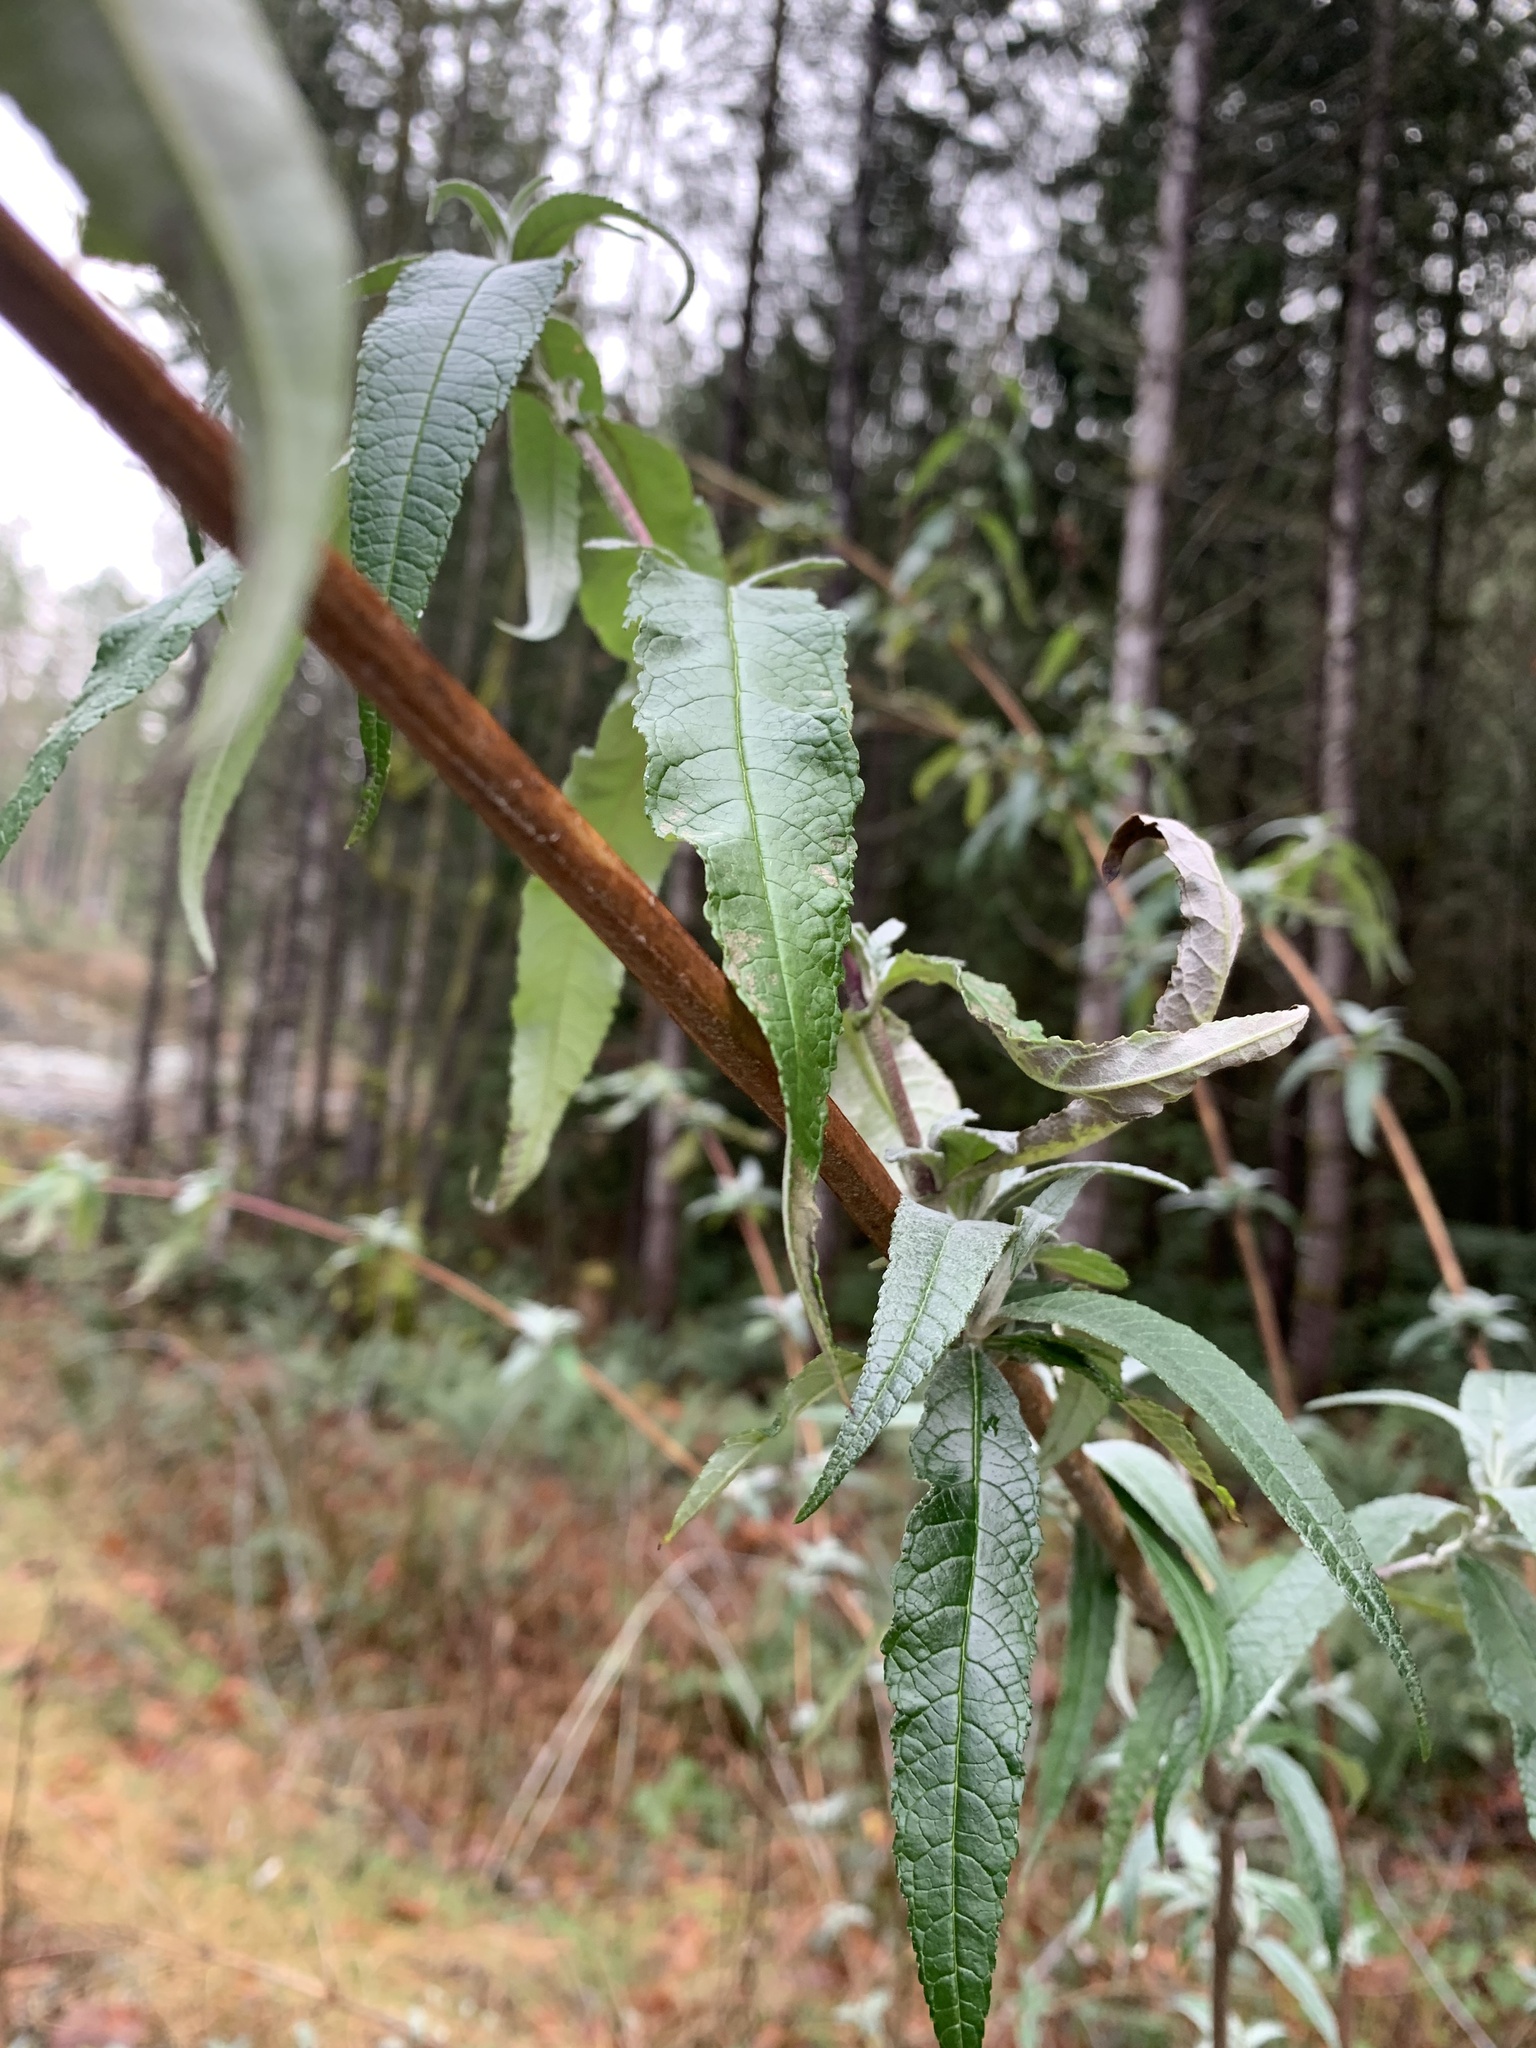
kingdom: Plantae
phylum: Tracheophyta
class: Magnoliopsida
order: Lamiales
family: Scrophulariaceae
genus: Buddleja
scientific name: Buddleja davidii
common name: Butterfly-bush
